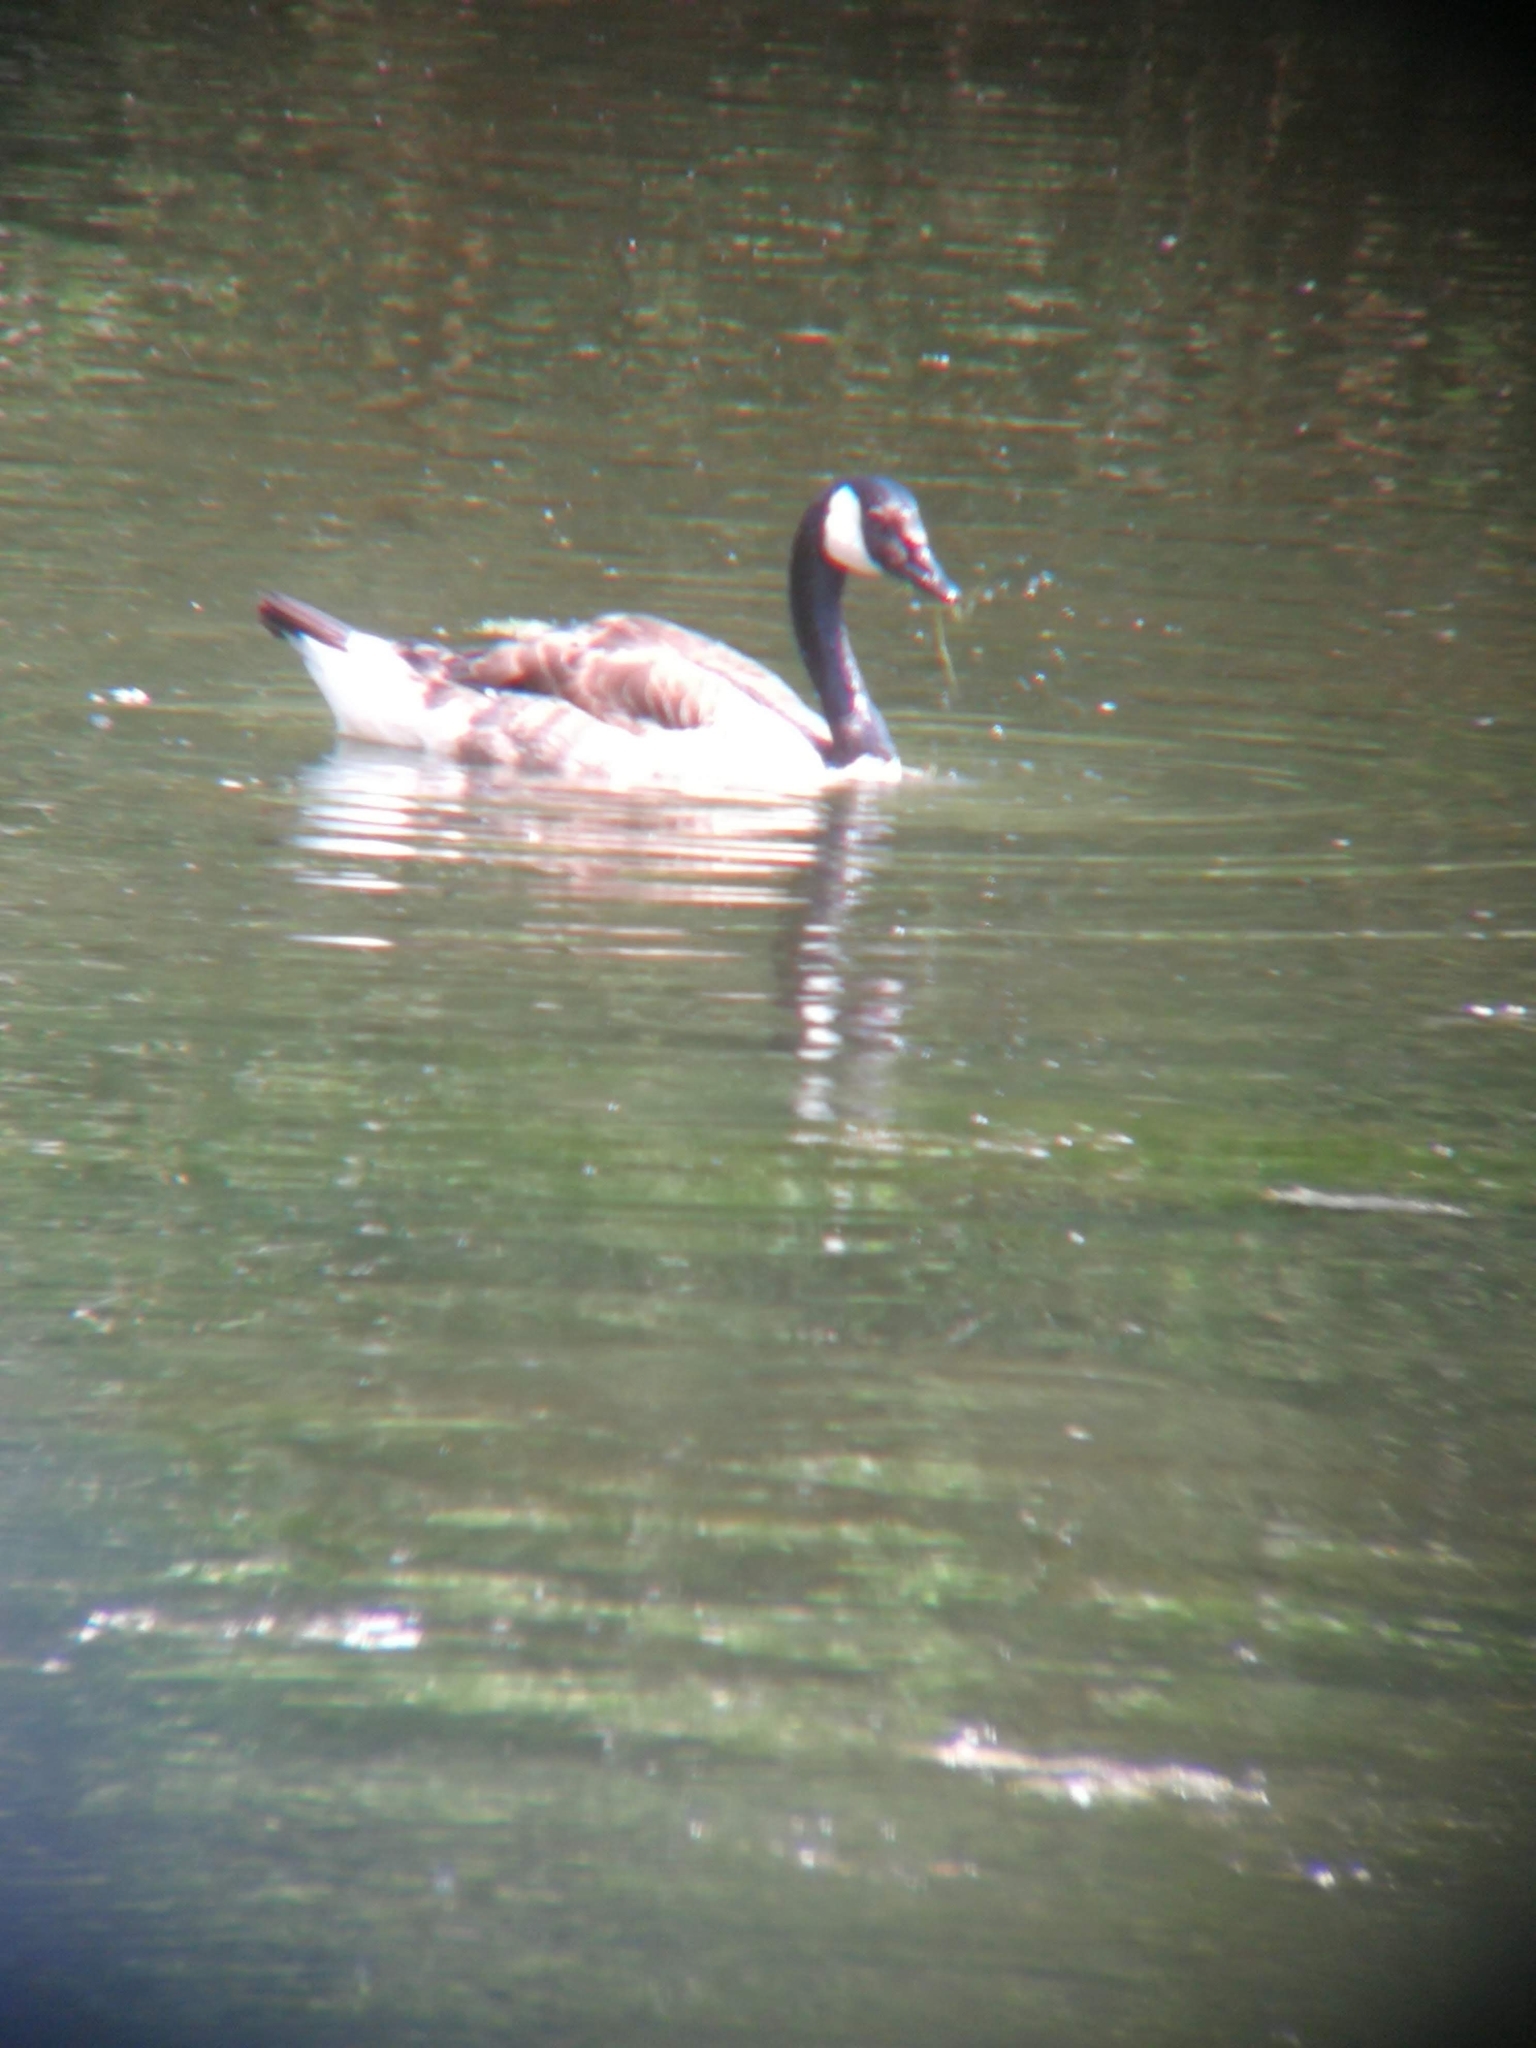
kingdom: Animalia
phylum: Chordata
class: Aves
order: Anseriformes
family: Anatidae
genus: Branta
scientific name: Branta canadensis
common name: Canada goose
